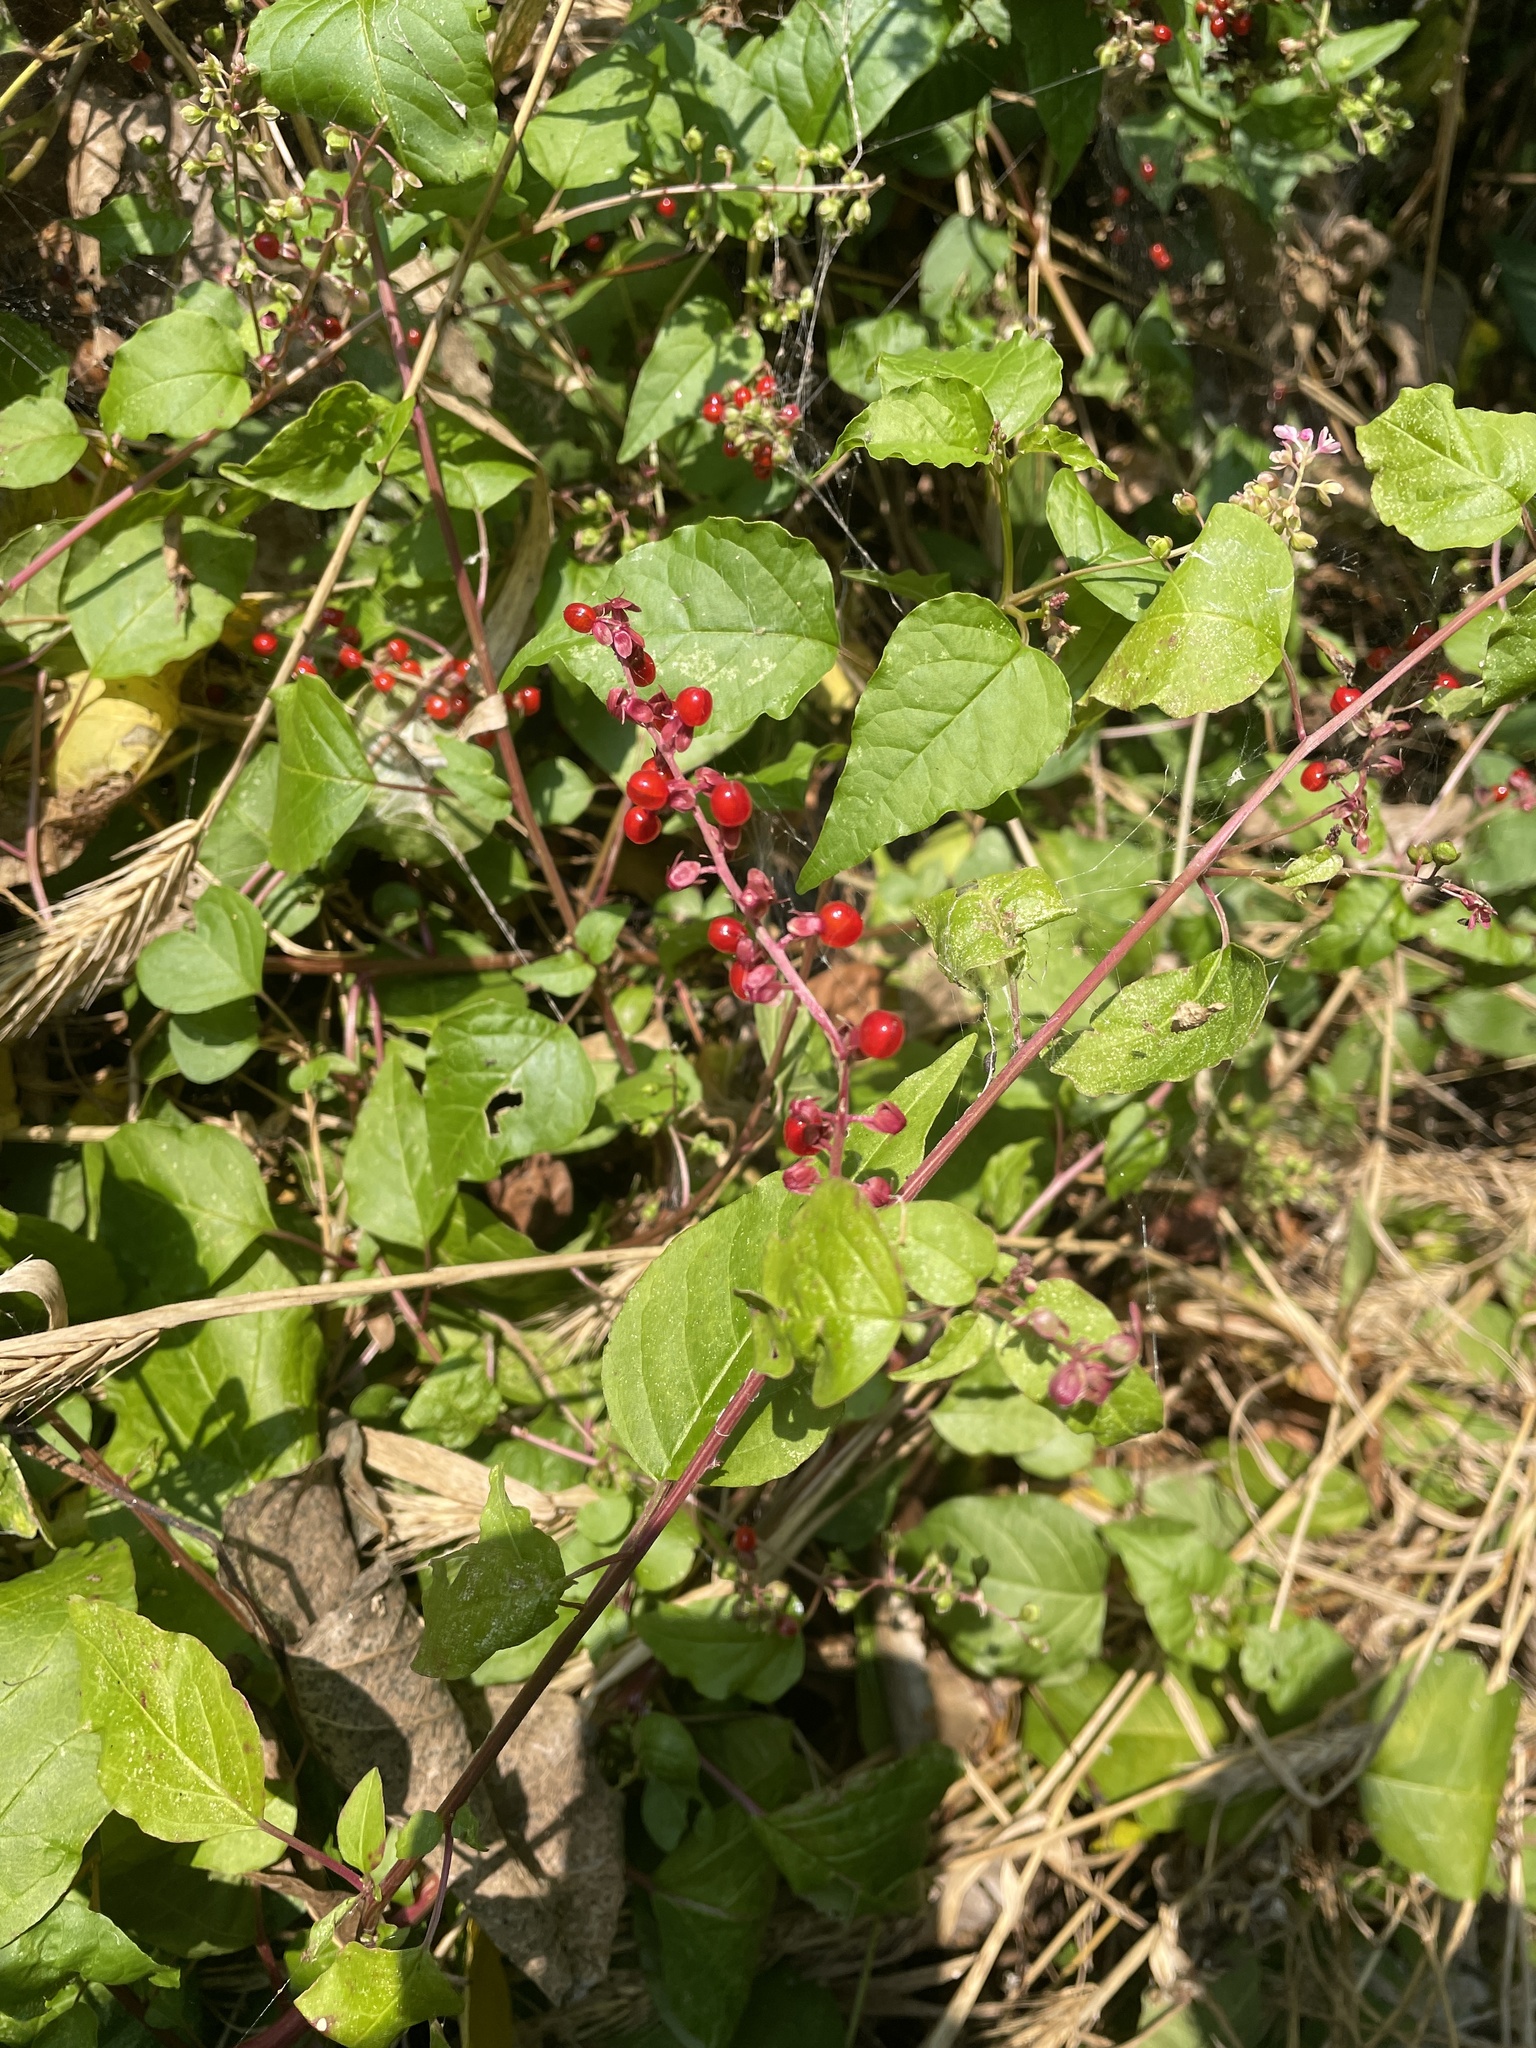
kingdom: Plantae
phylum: Tracheophyta
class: Magnoliopsida
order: Caryophyllales
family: Phytolaccaceae
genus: Rivina
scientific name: Rivina humilis
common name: Rougeplant
